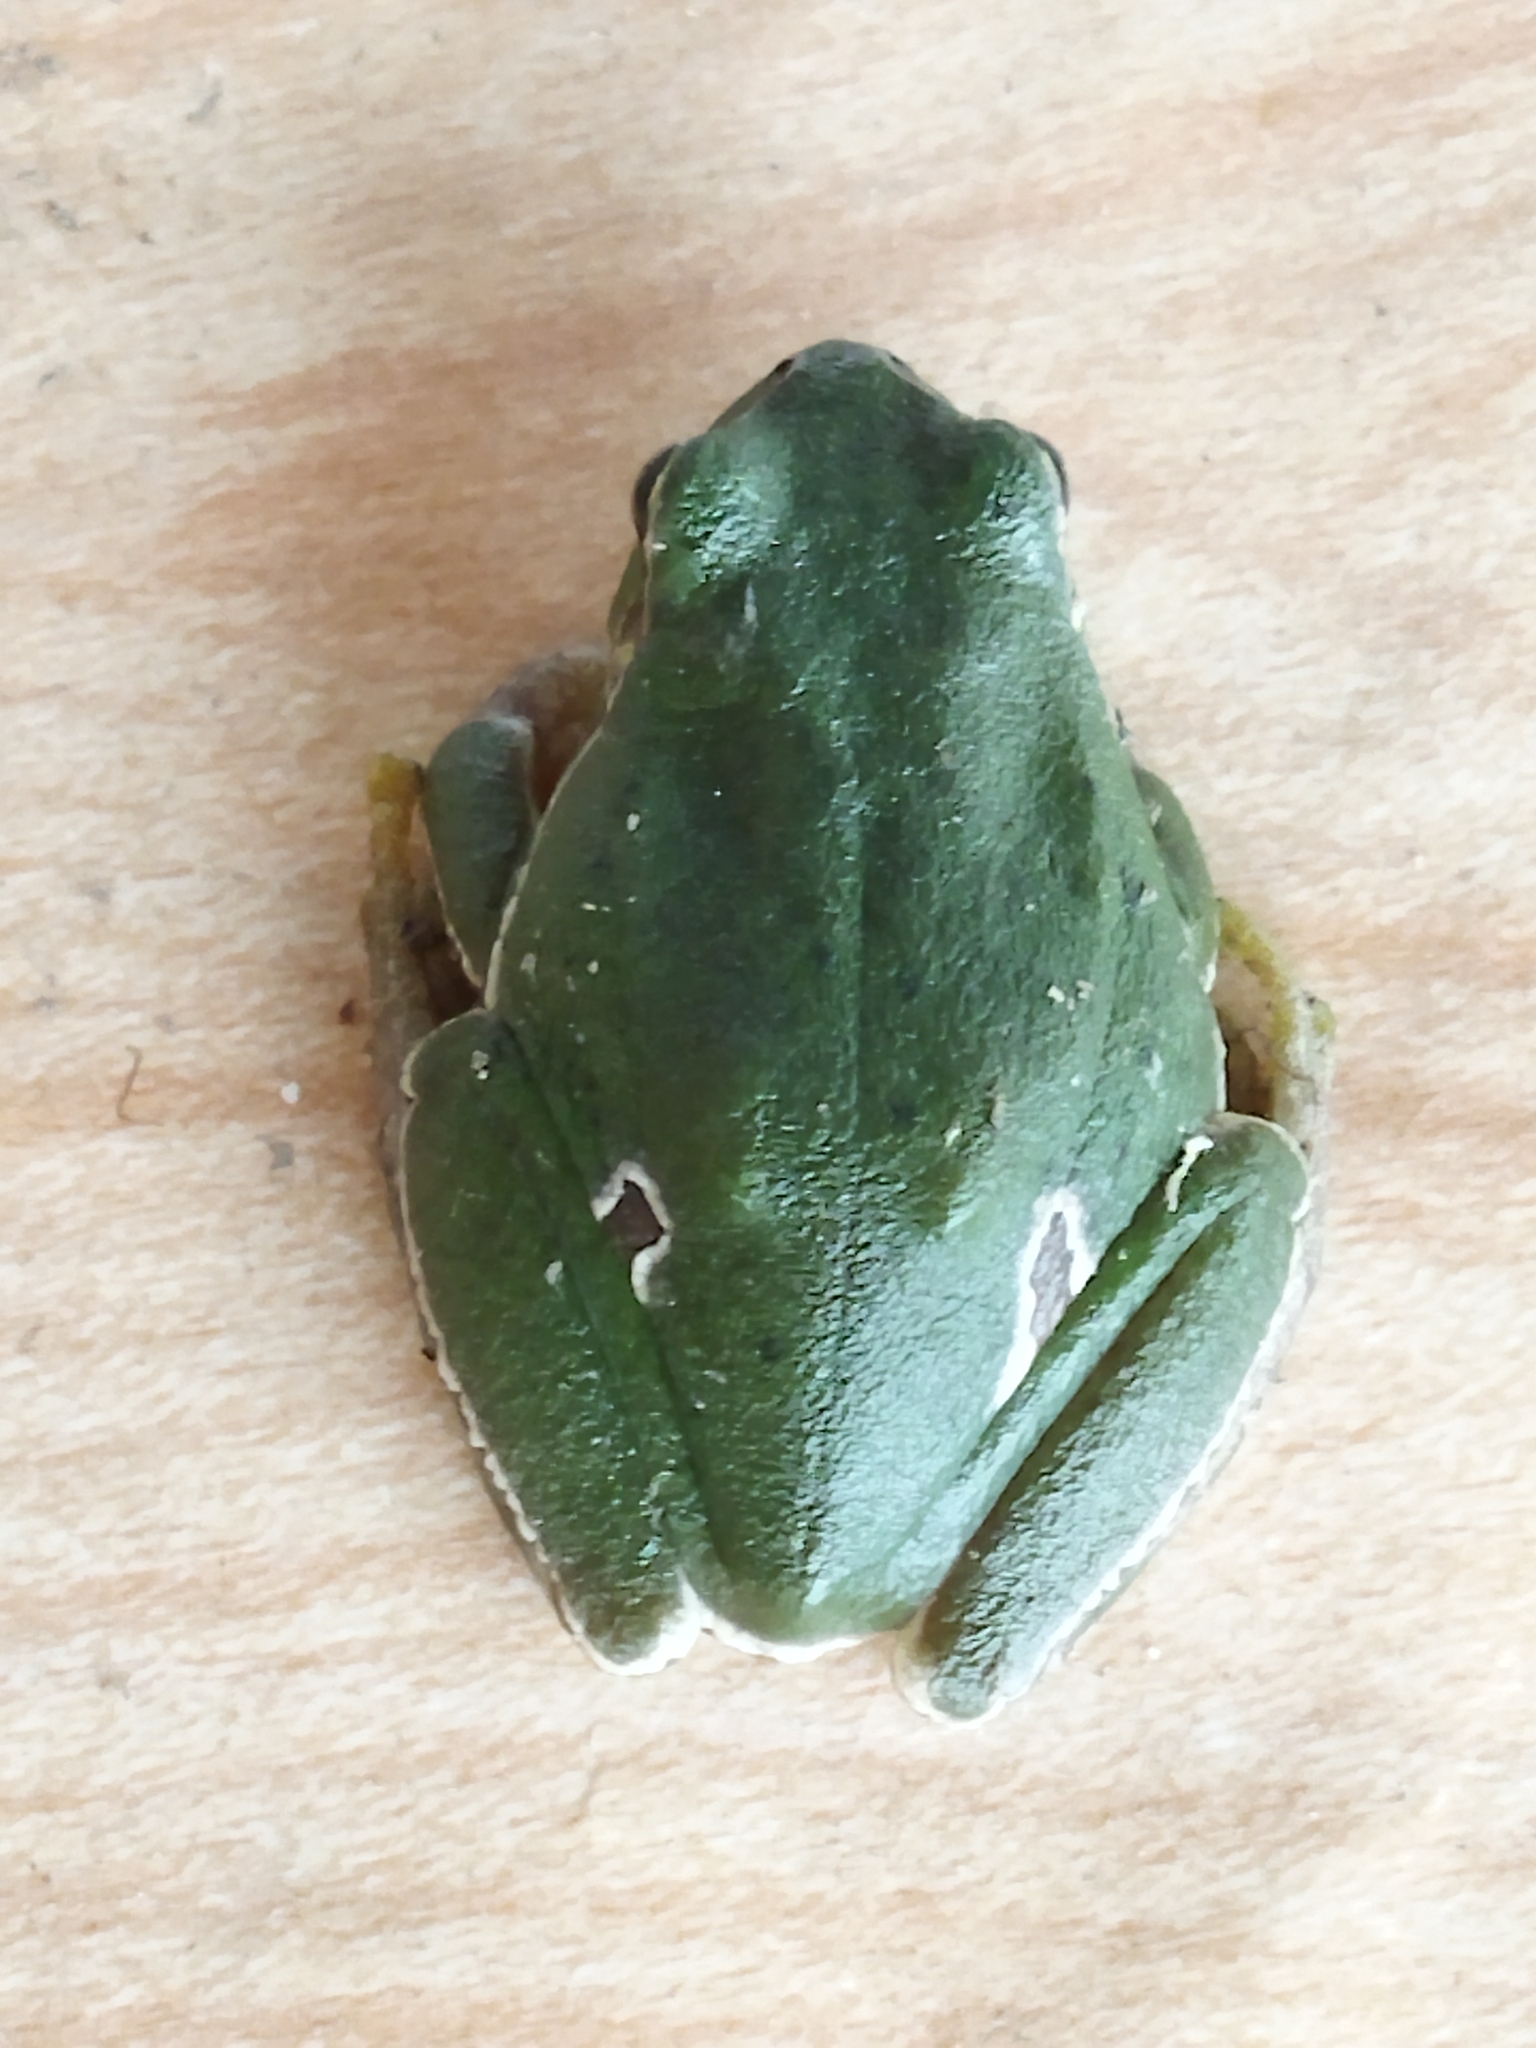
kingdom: Animalia
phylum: Chordata
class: Amphibia
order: Anura
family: Hylidae
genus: Hyla
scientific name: Hyla orientalis
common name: Caucasian treefrog
